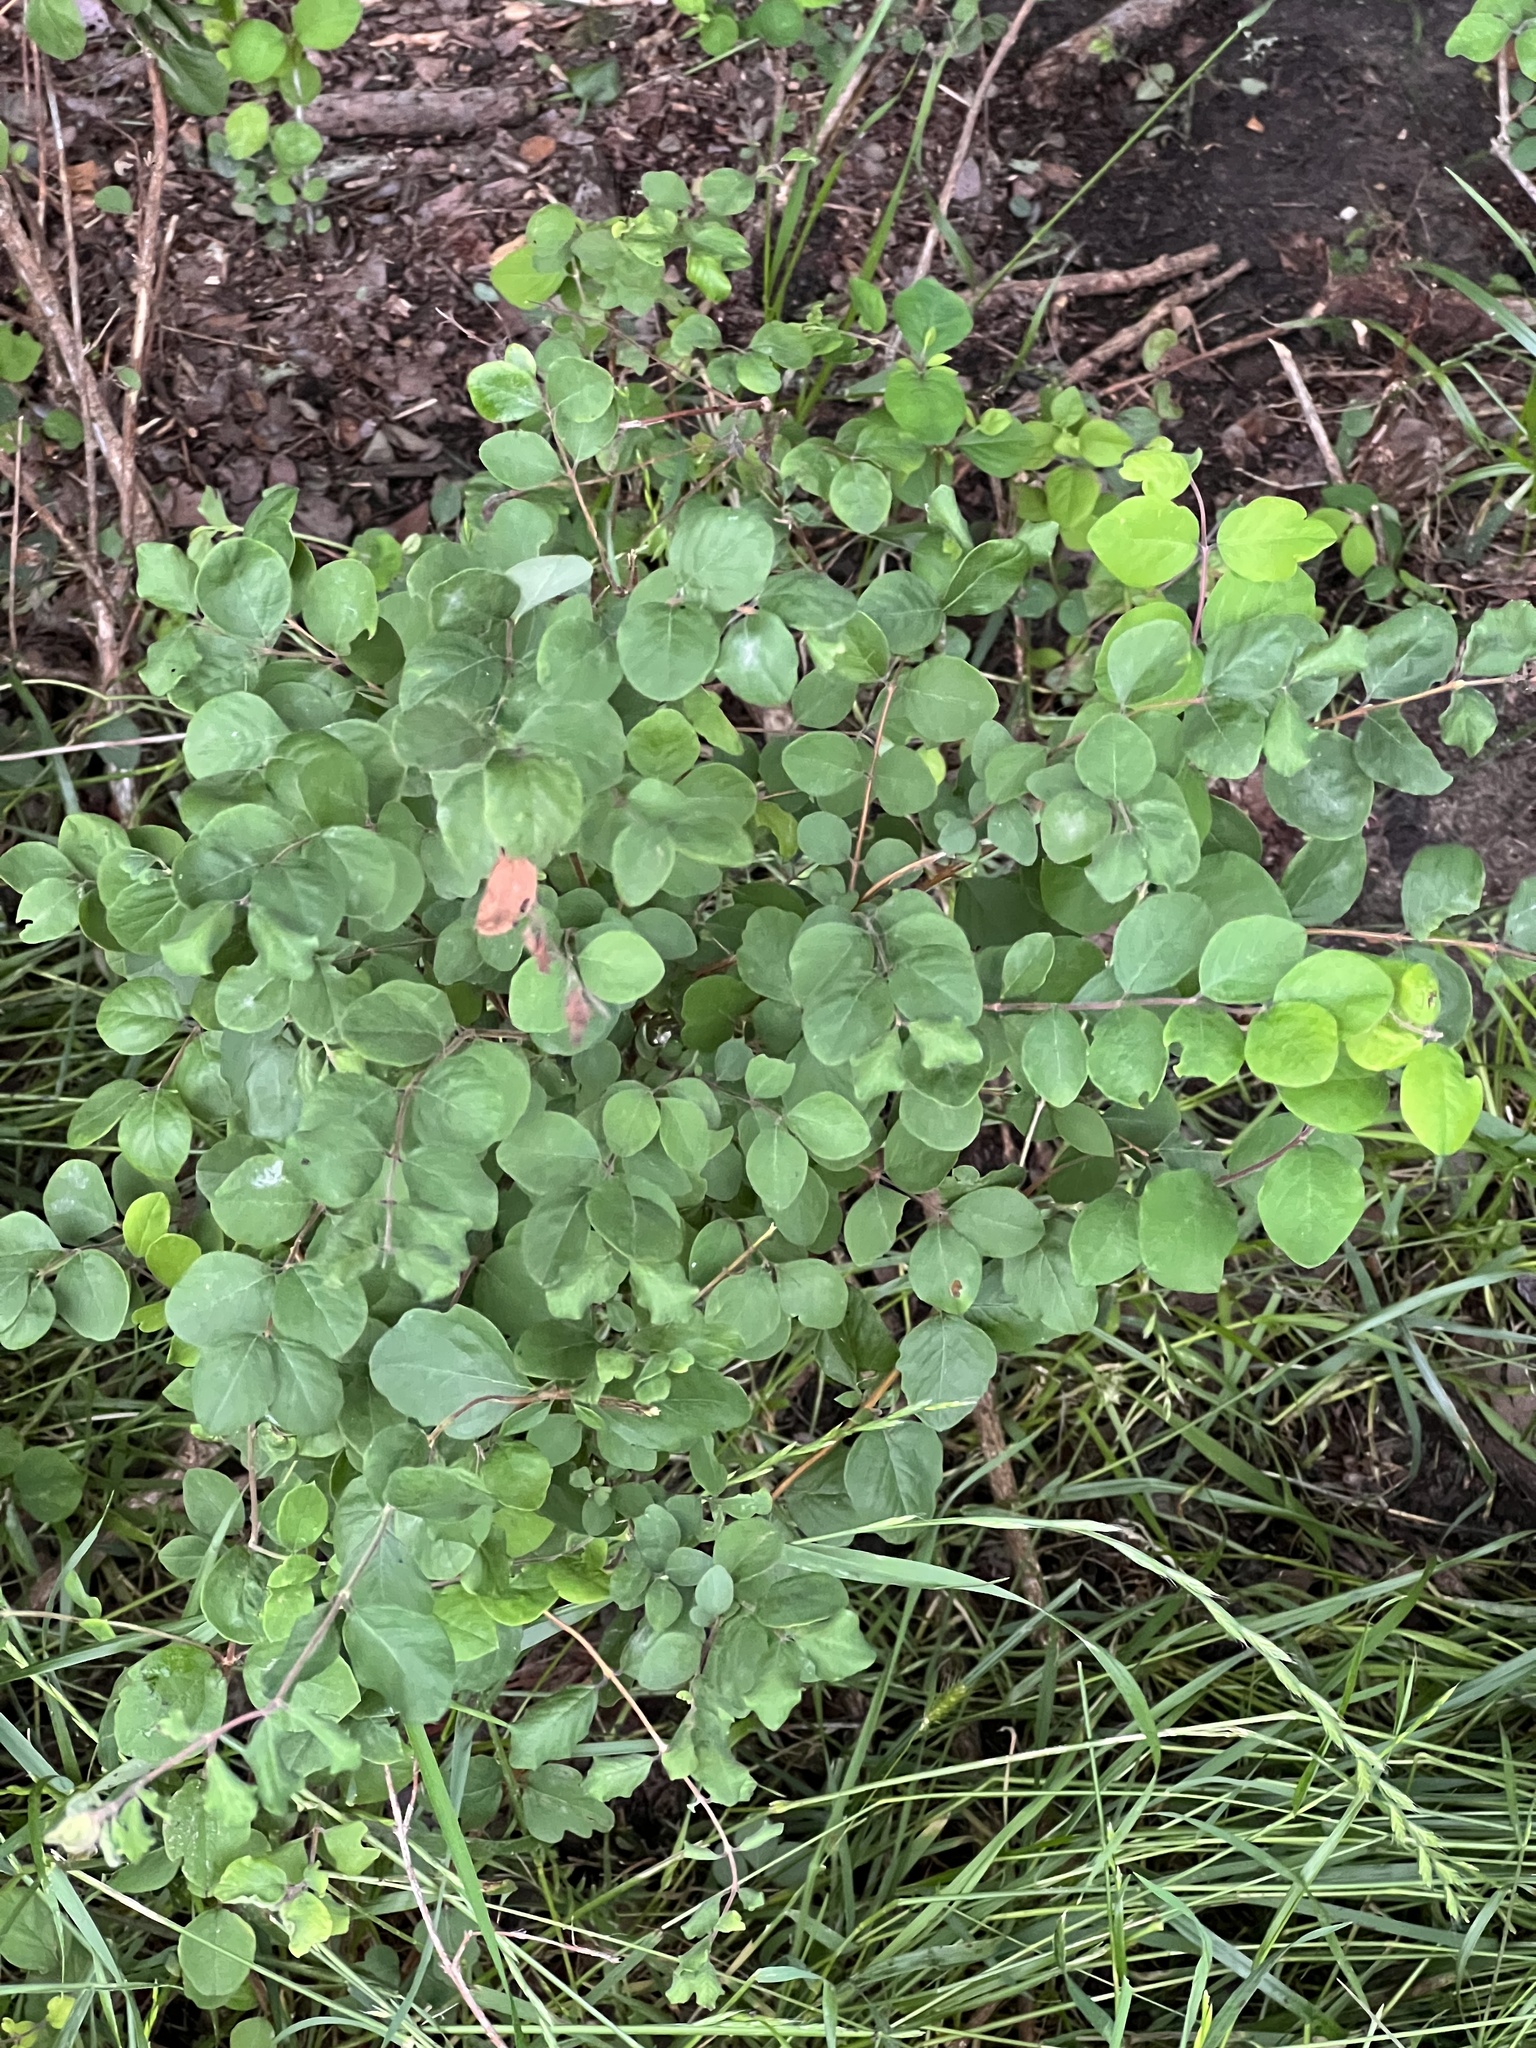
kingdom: Plantae
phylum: Tracheophyta
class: Magnoliopsida
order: Dipsacales
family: Caprifoliaceae
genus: Symphoricarpos
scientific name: Symphoricarpos orbiculatus
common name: Coralberry
